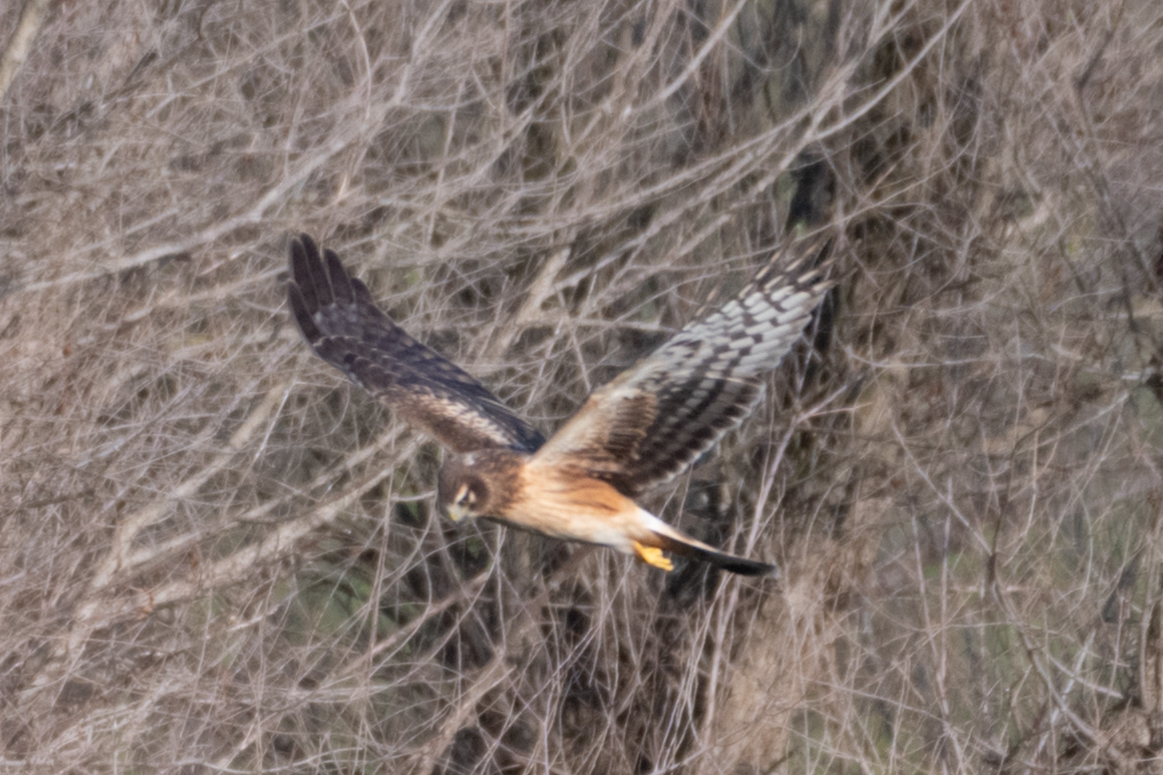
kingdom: Animalia
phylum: Chordata
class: Aves
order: Accipitriformes
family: Accipitridae
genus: Circus
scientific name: Circus cyaneus
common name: Hen harrier
